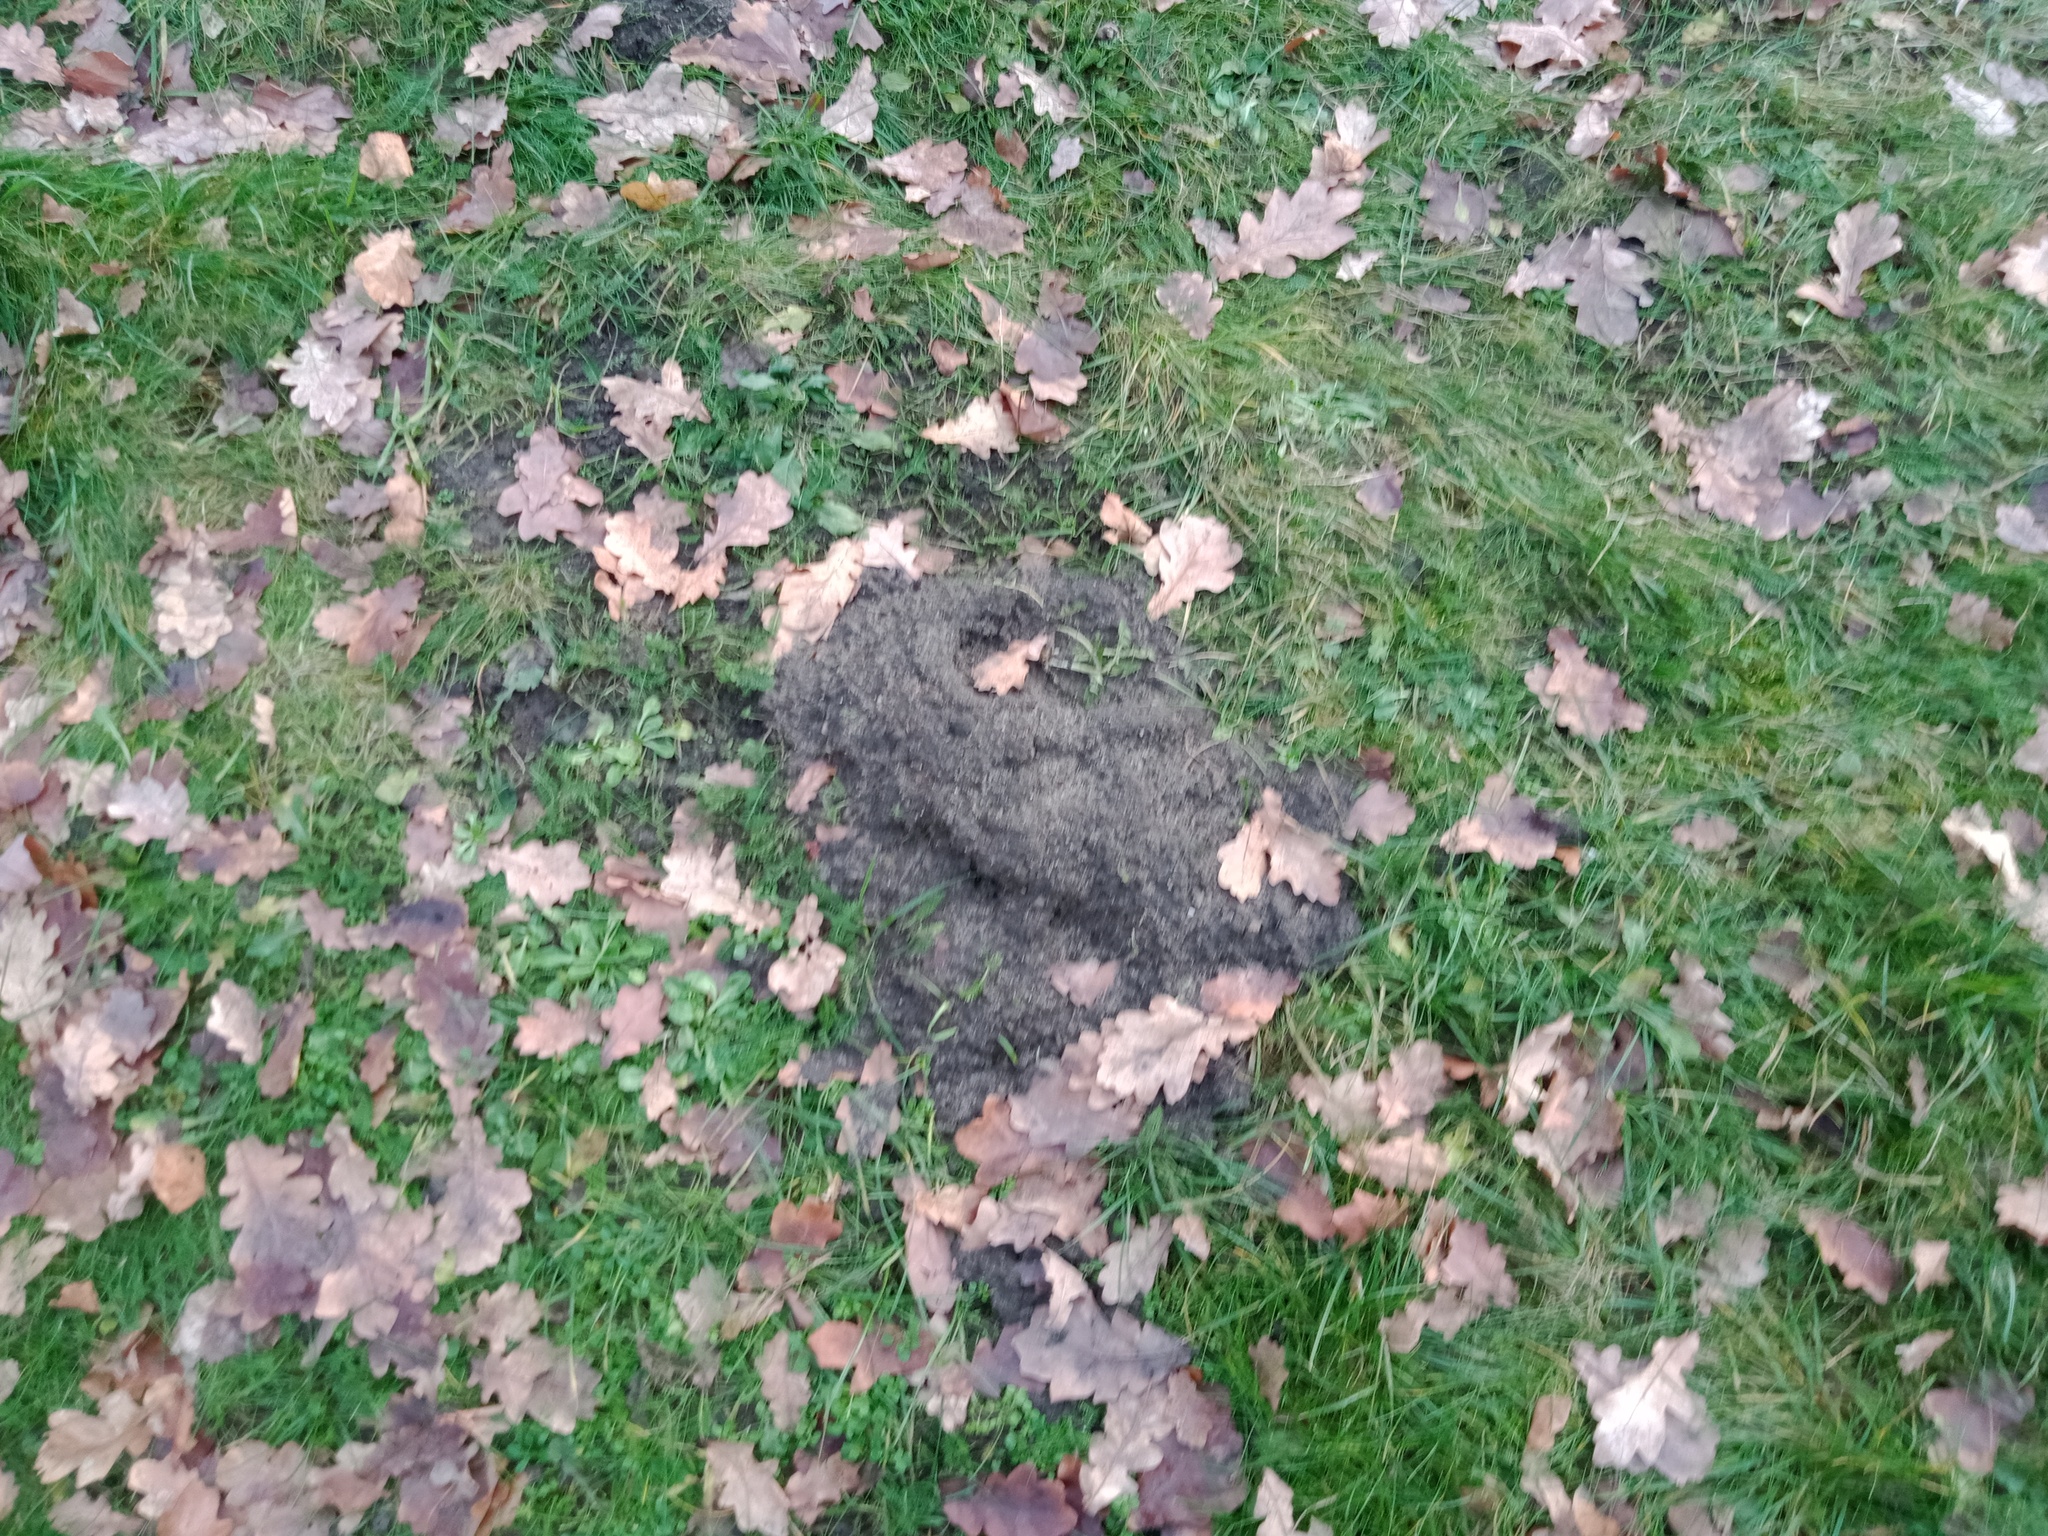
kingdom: Animalia
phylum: Chordata
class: Mammalia
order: Soricomorpha
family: Talpidae
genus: Talpa
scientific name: Talpa europaea
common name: European mole
